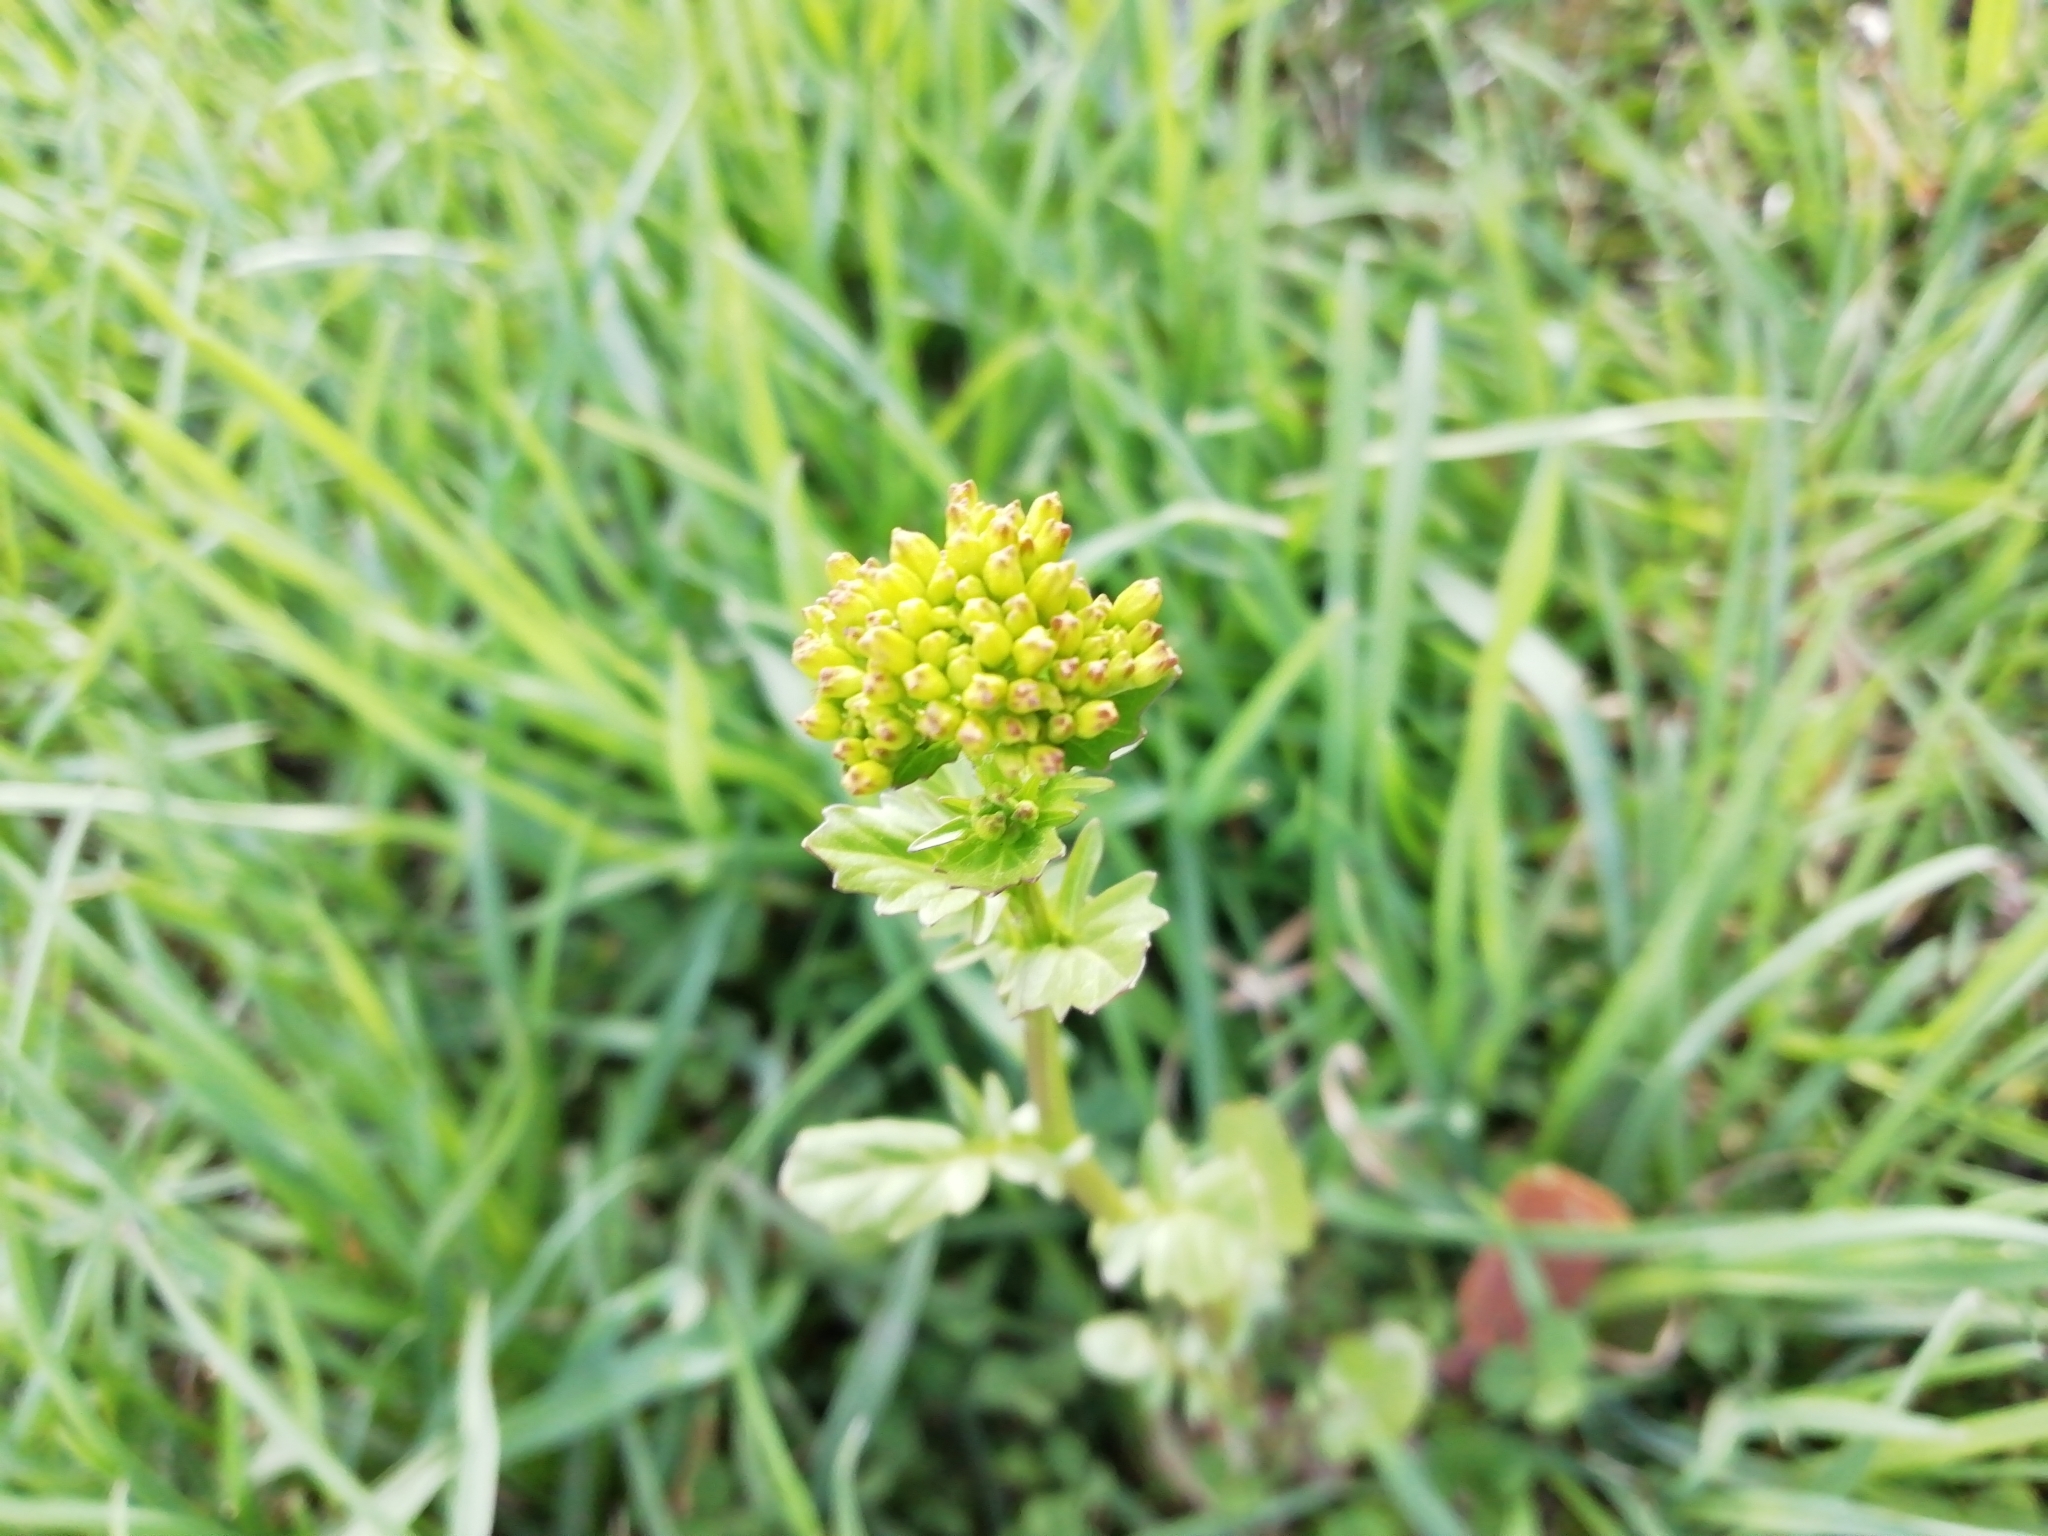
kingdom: Plantae
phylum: Tracheophyta
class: Magnoliopsida
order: Brassicales
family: Brassicaceae
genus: Barbarea
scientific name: Barbarea vulgaris
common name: Cressy-greens
